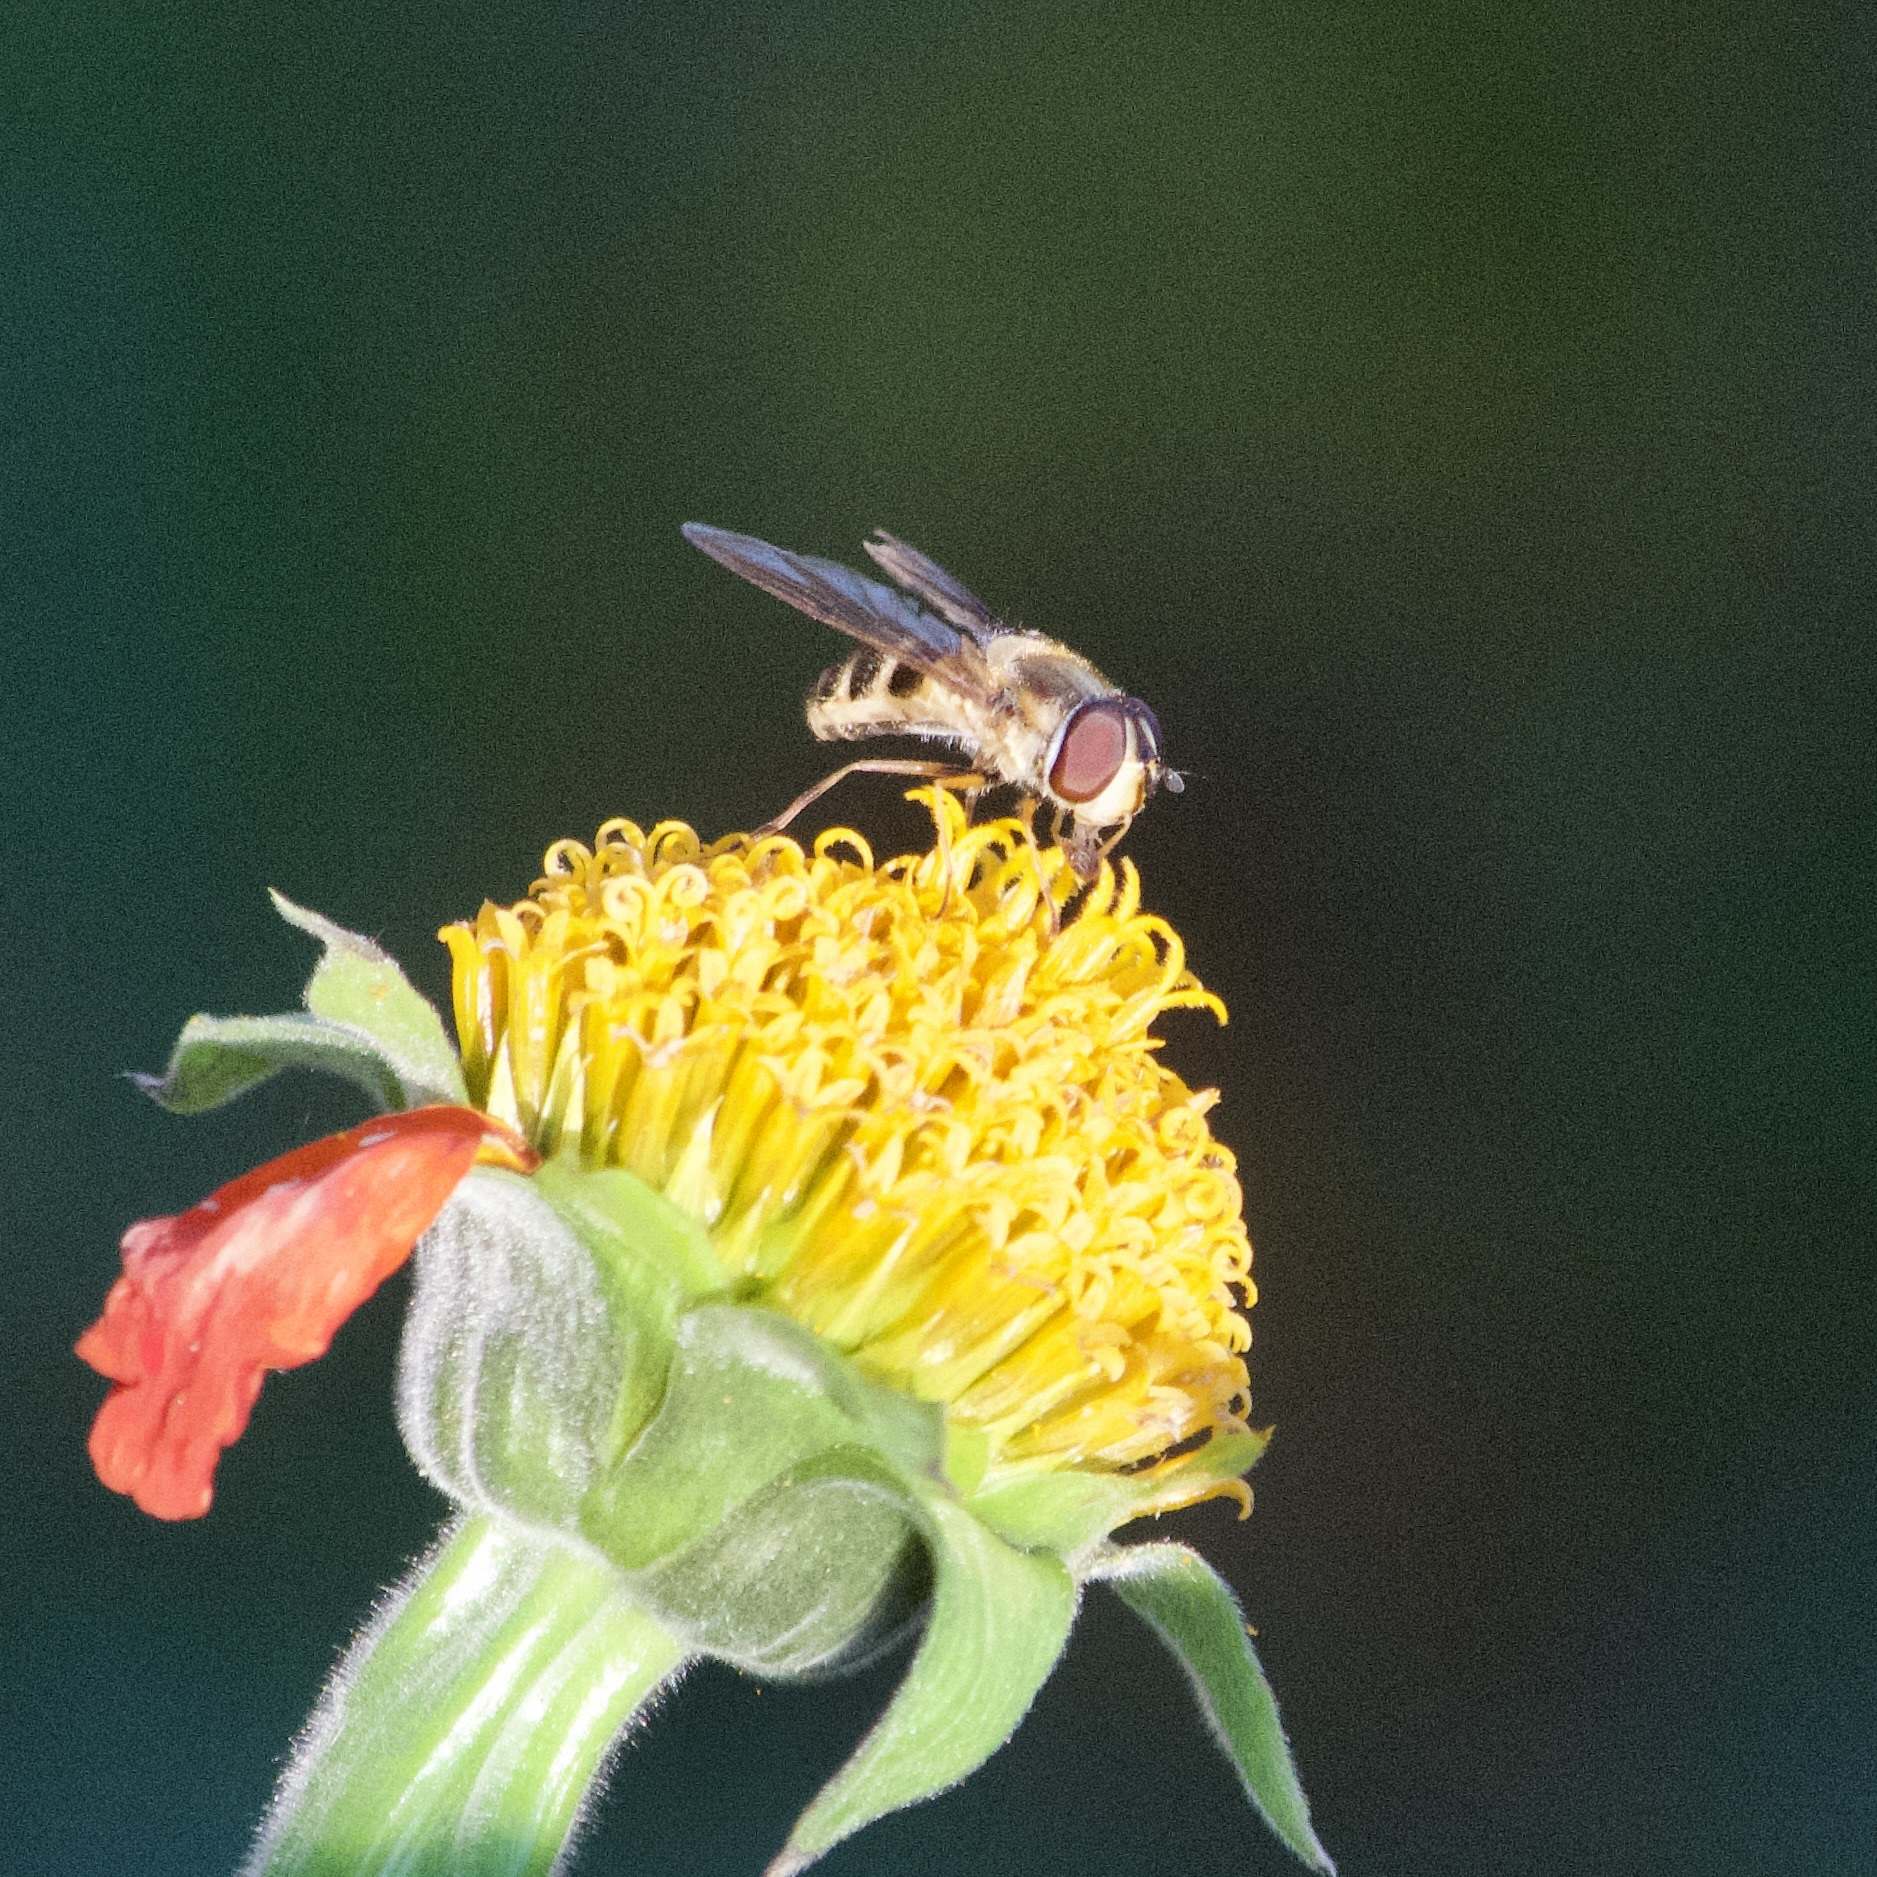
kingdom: Animalia
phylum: Arthropoda
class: Insecta
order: Diptera
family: Syrphidae
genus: Epistrophe
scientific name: Epistrophe grossulariae
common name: Black-horned smoothtail
